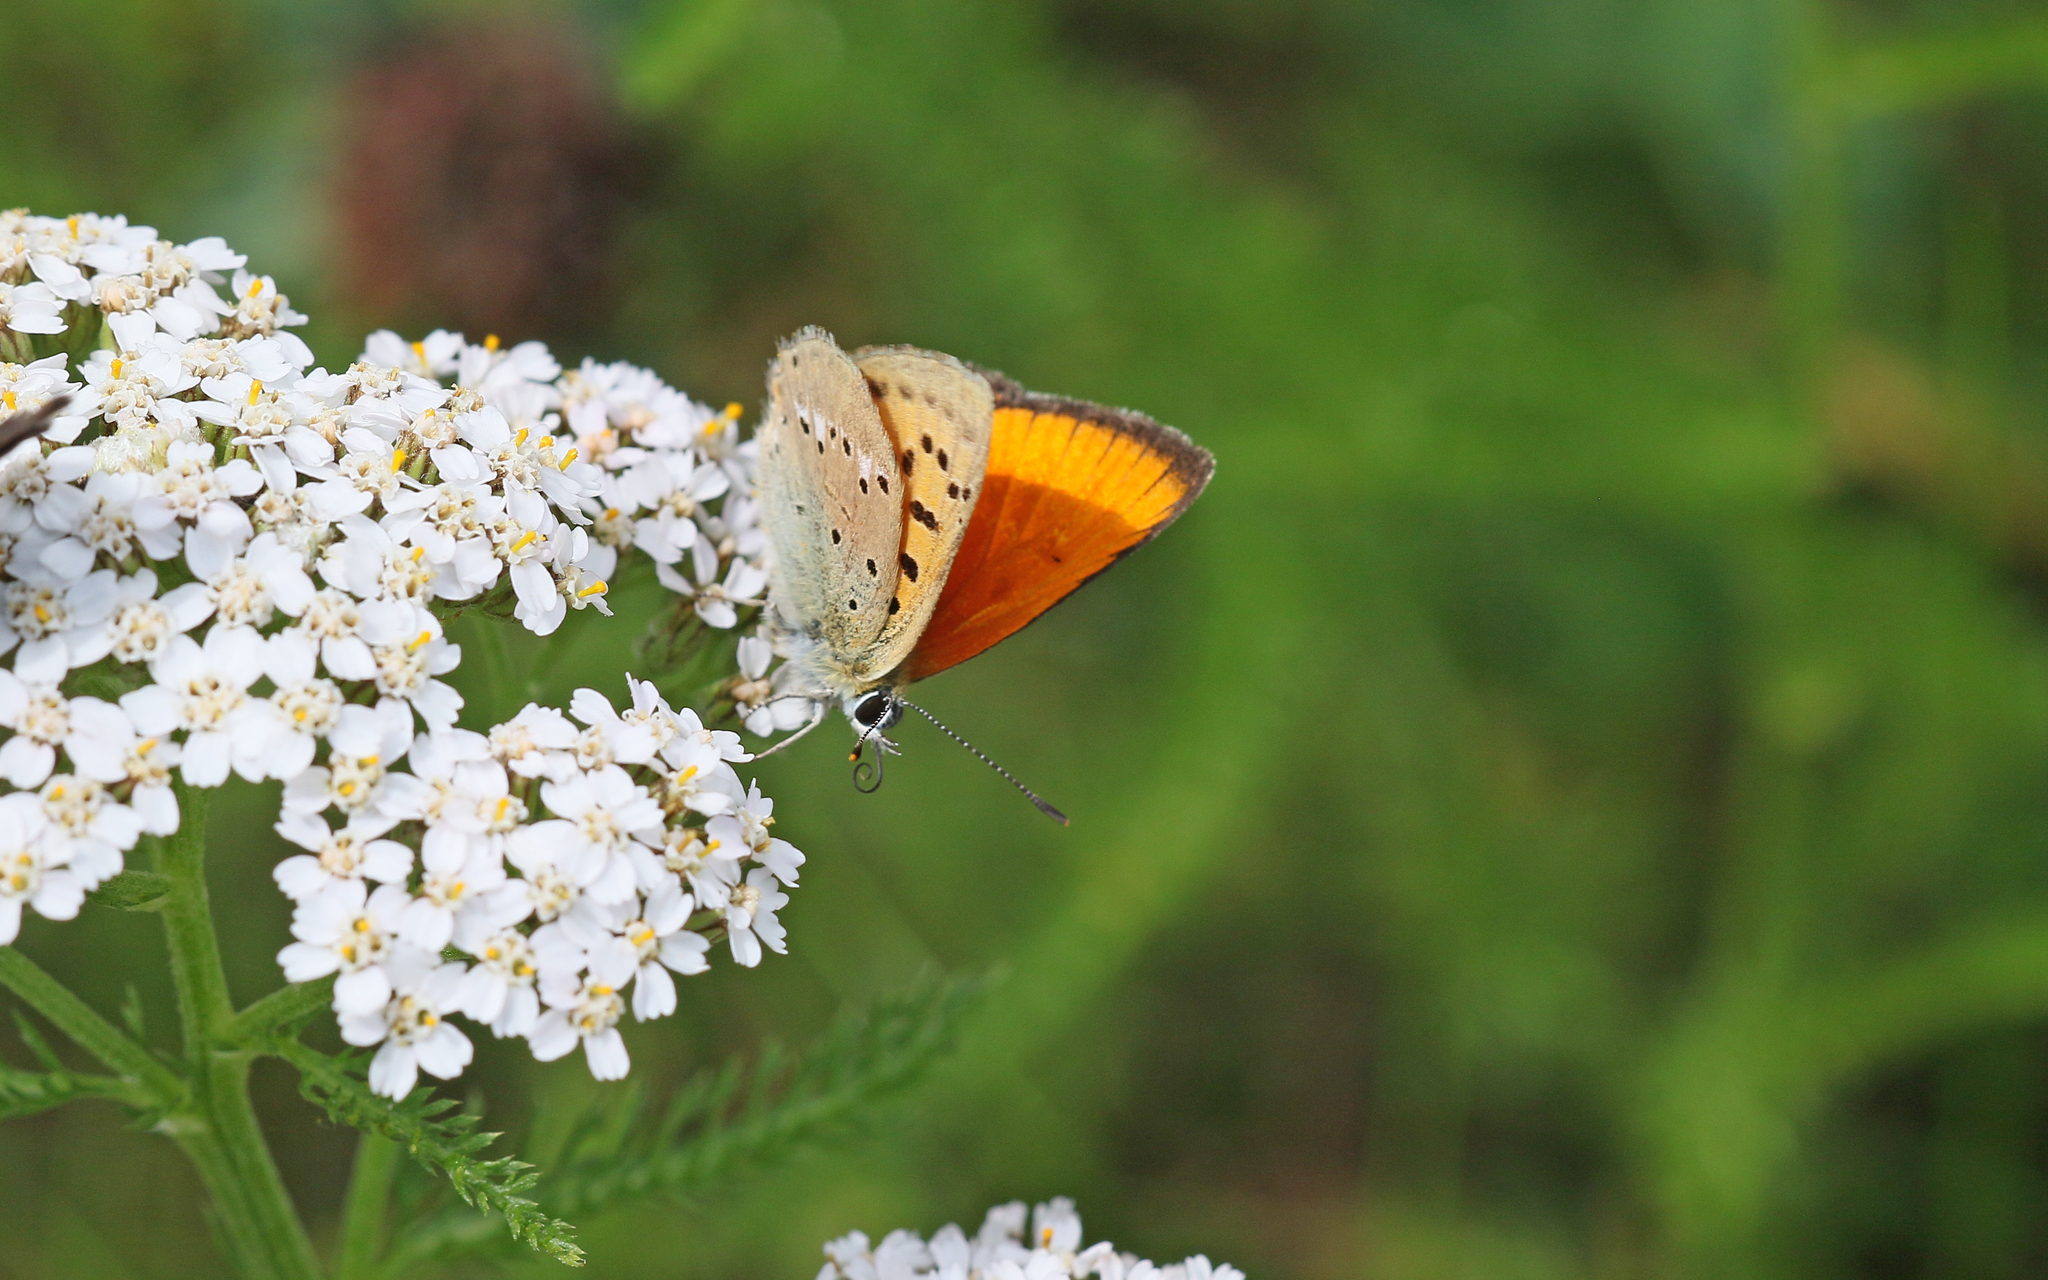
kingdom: Animalia
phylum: Arthropoda
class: Insecta
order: Lepidoptera
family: Lycaenidae
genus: Lycaena
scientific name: Lycaena virgaureae
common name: Scarce copper
